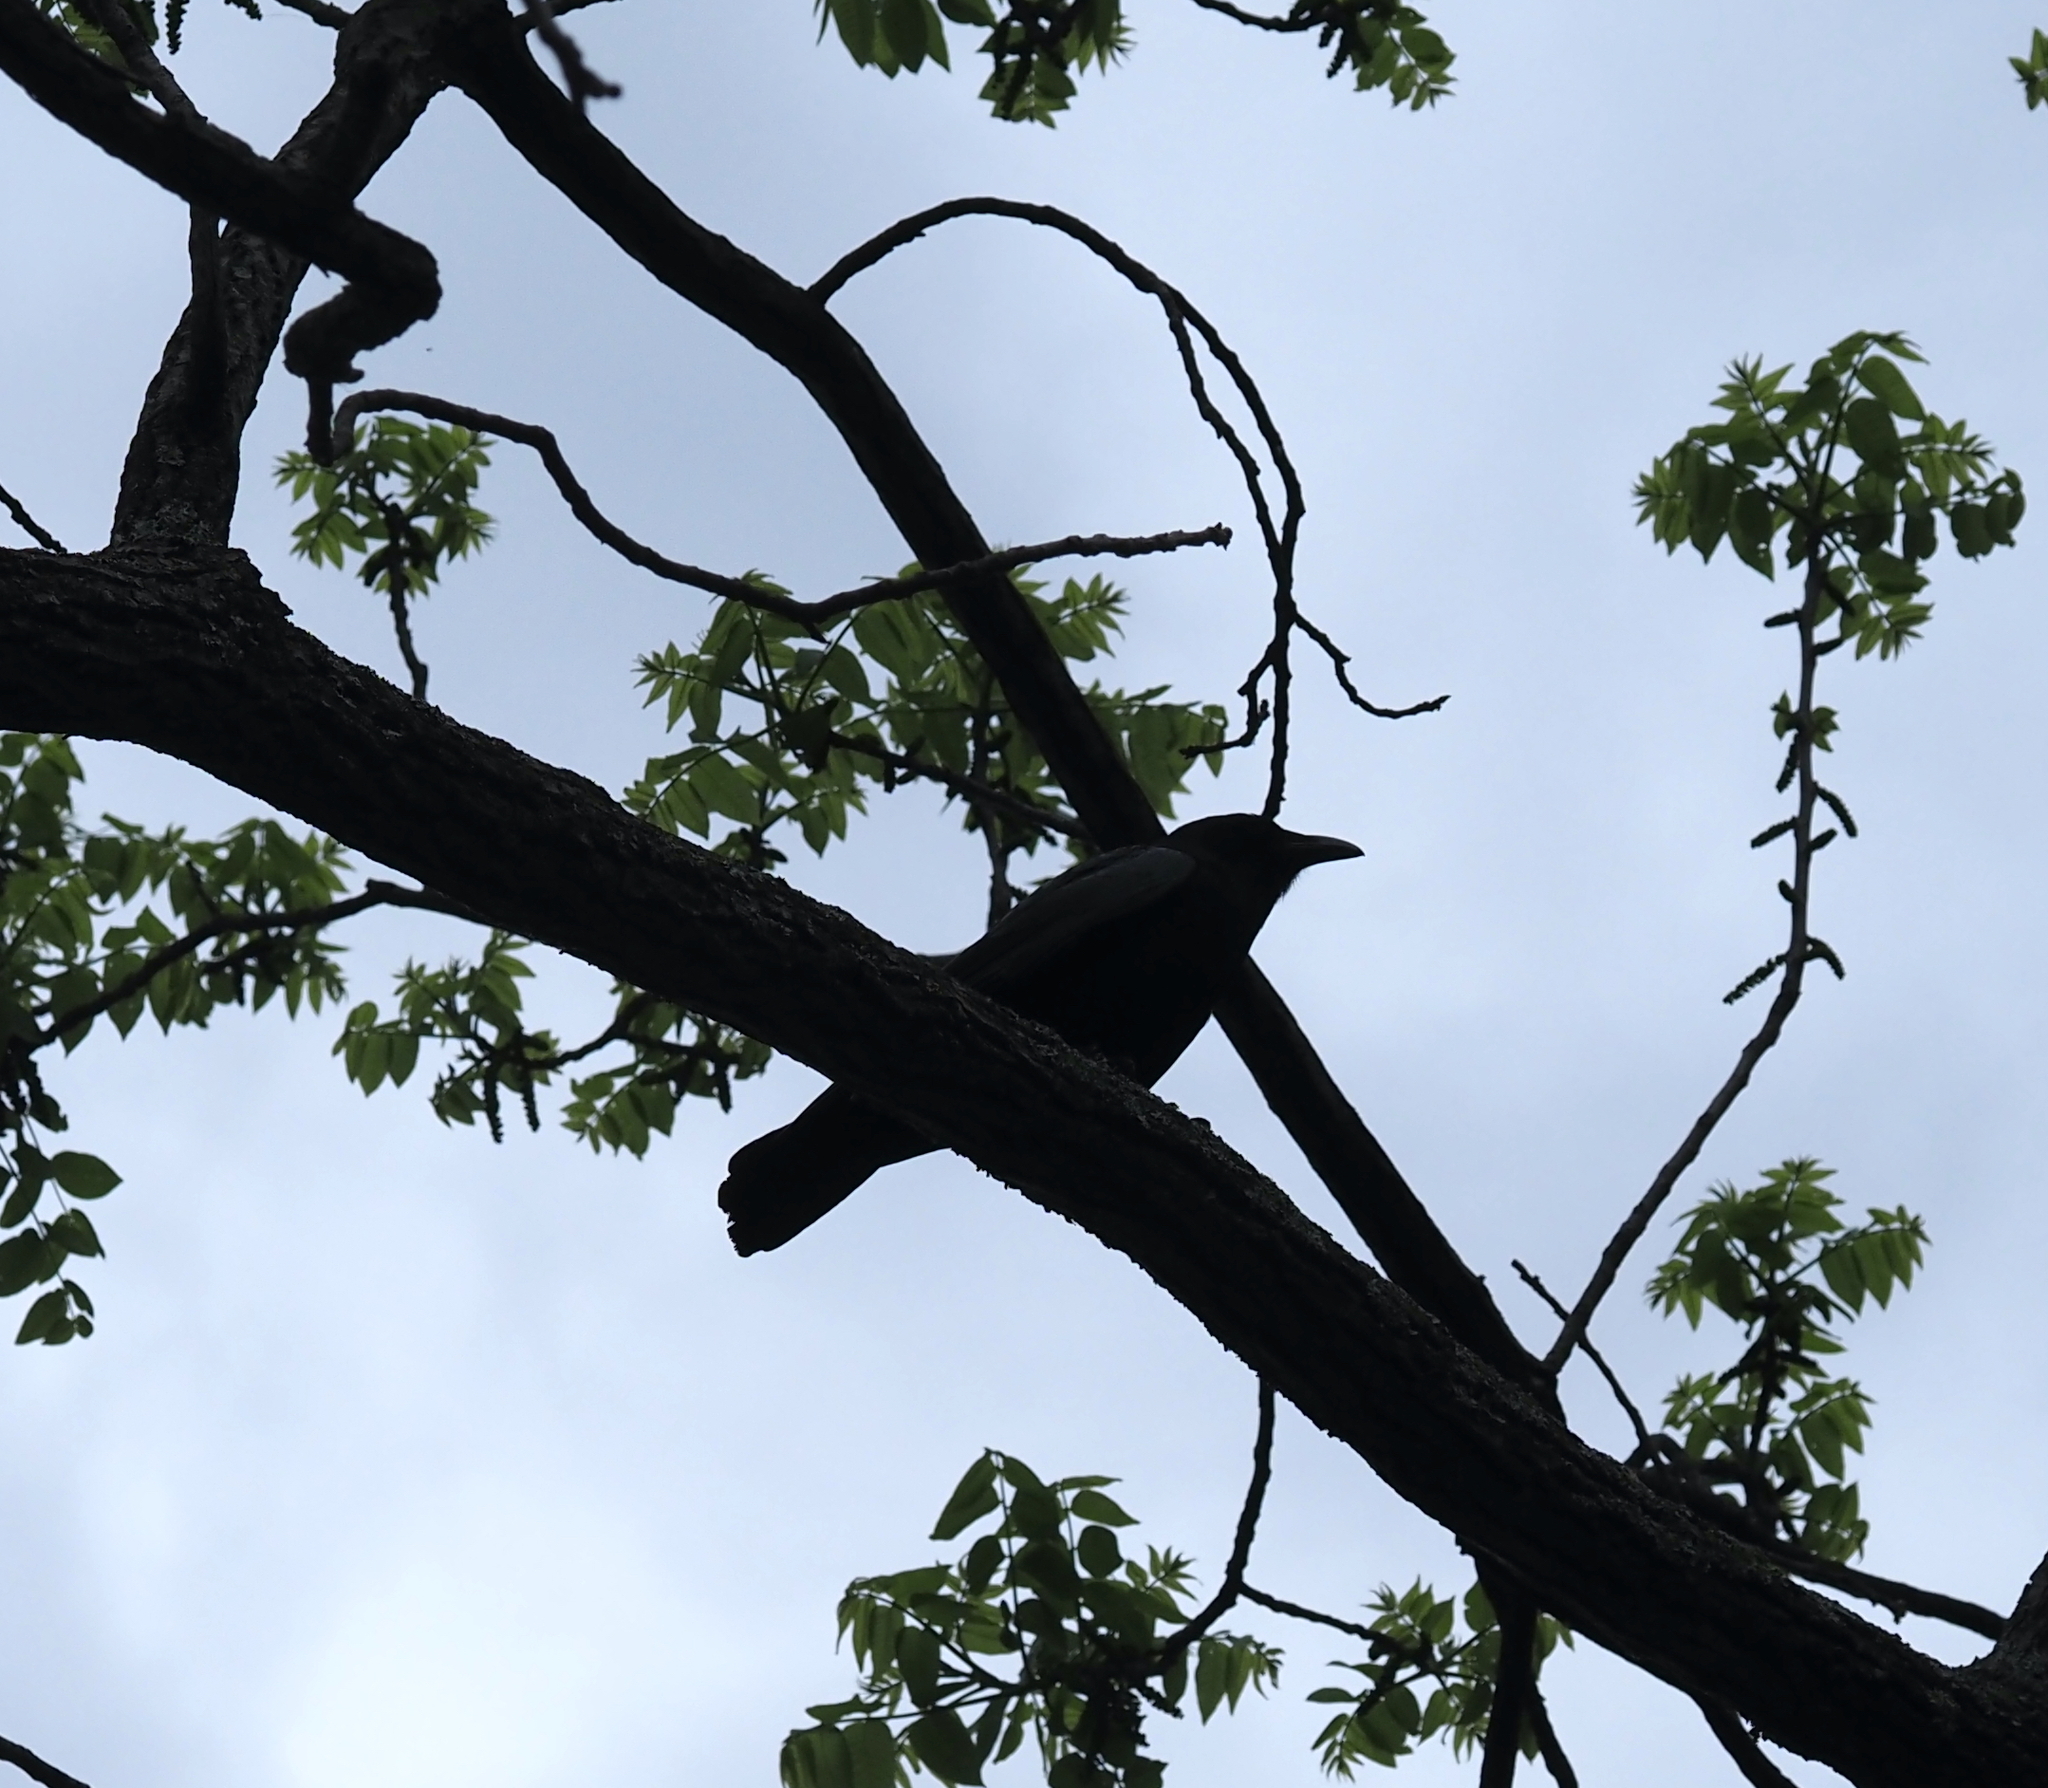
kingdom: Animalia
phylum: Chordata
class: Aves
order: Passeriformes
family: Corvidae
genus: Corvus
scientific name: Corvus ossifragus
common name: Fish crow
